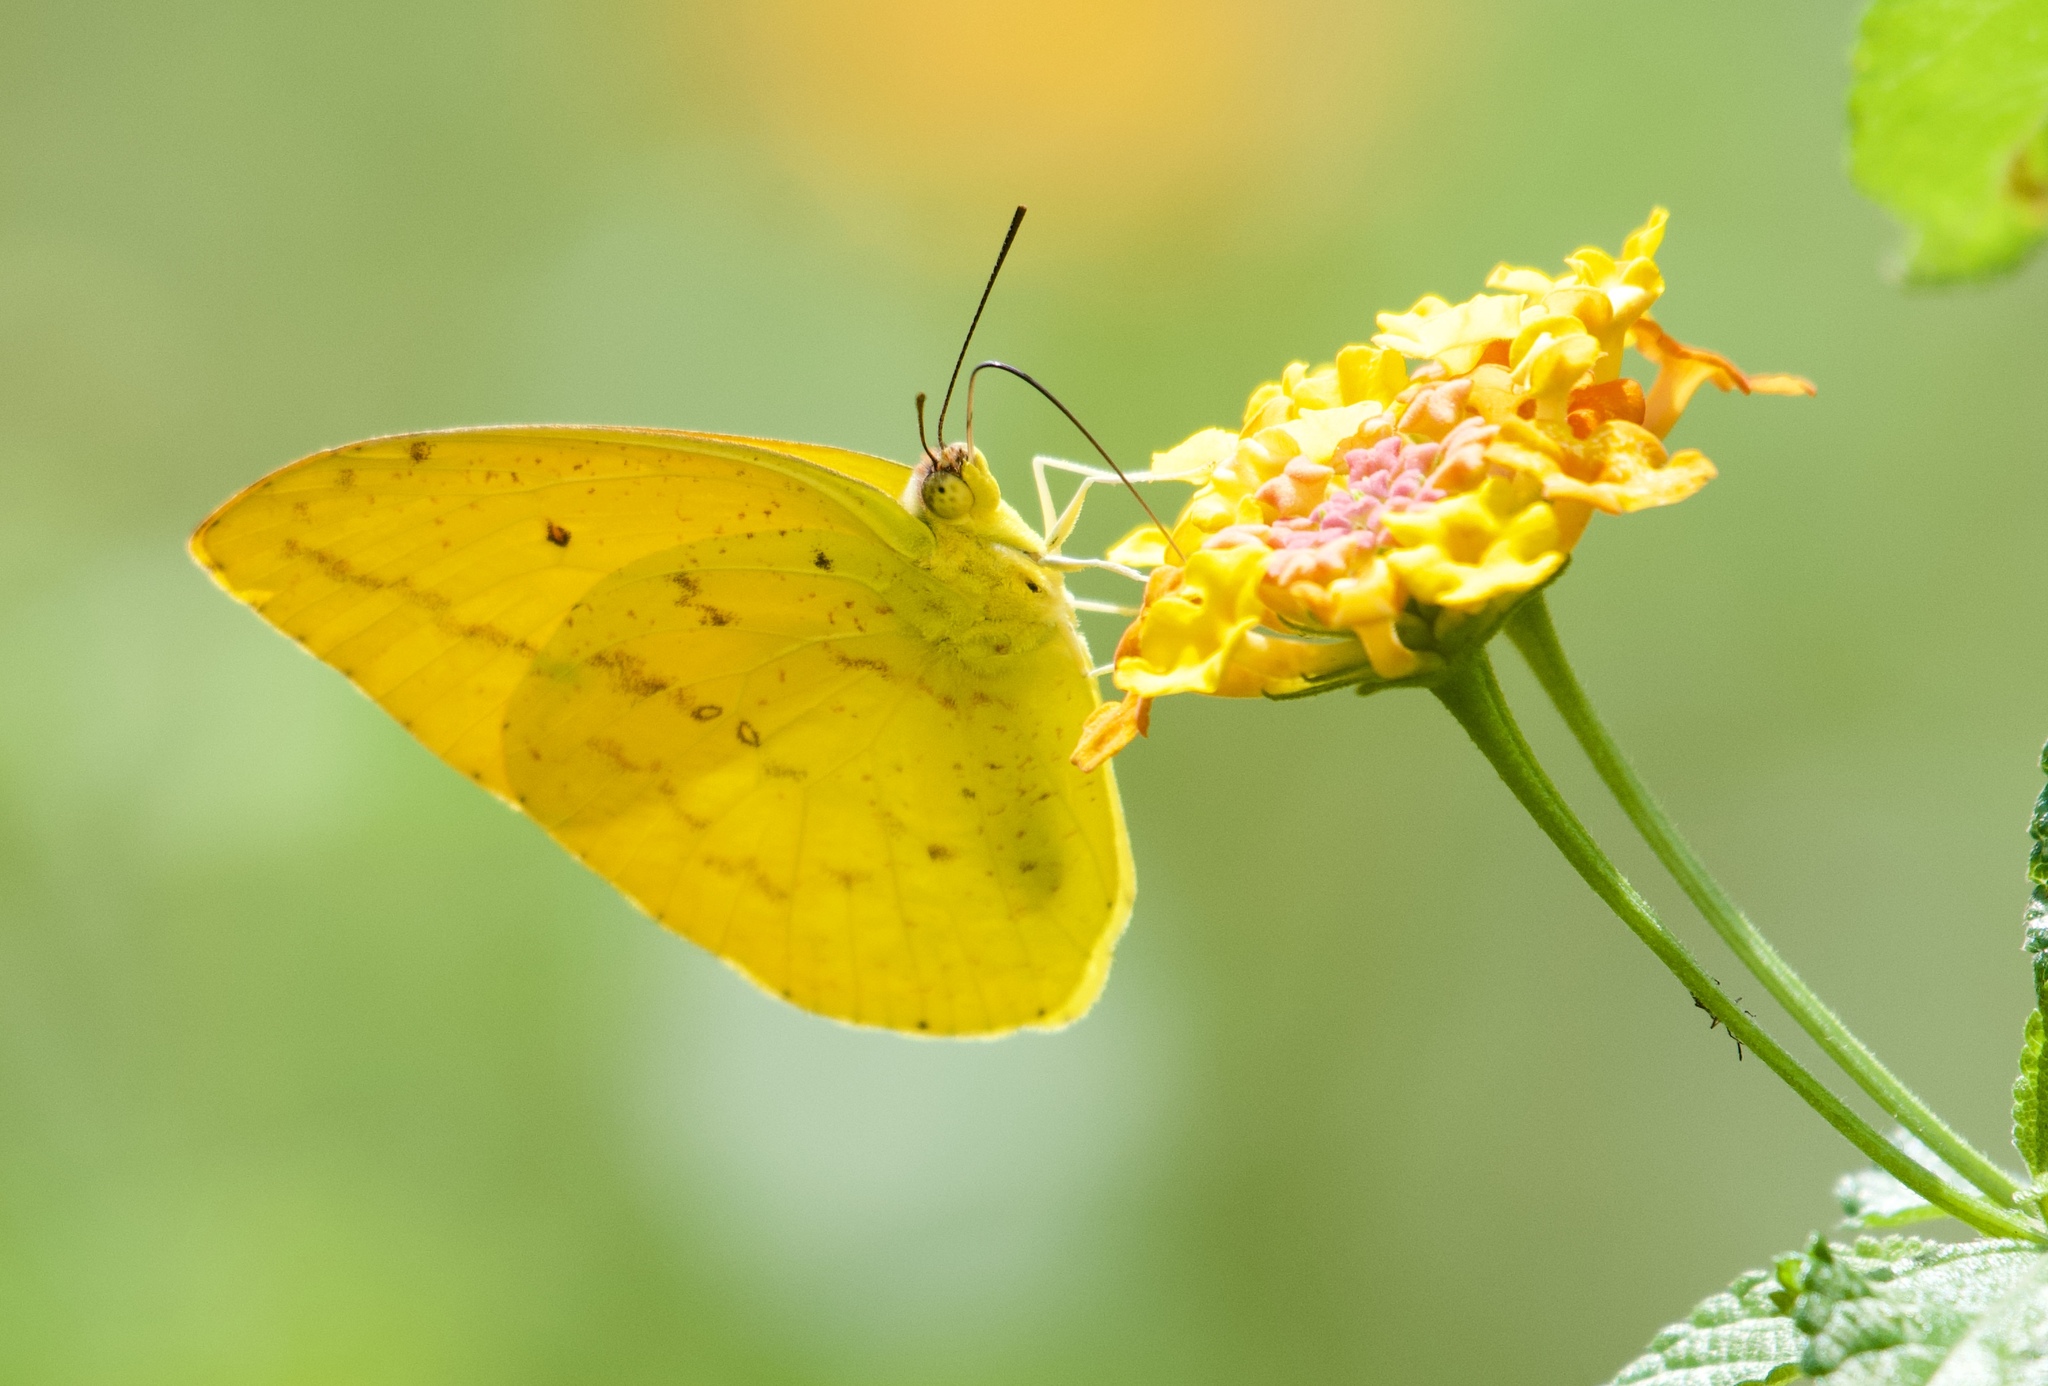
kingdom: Animalia
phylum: Arthropoda
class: Insecta
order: Lepidoptera
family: Pieridae
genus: Phoebis
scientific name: Phoebis agarithe
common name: Large orange sulphur
